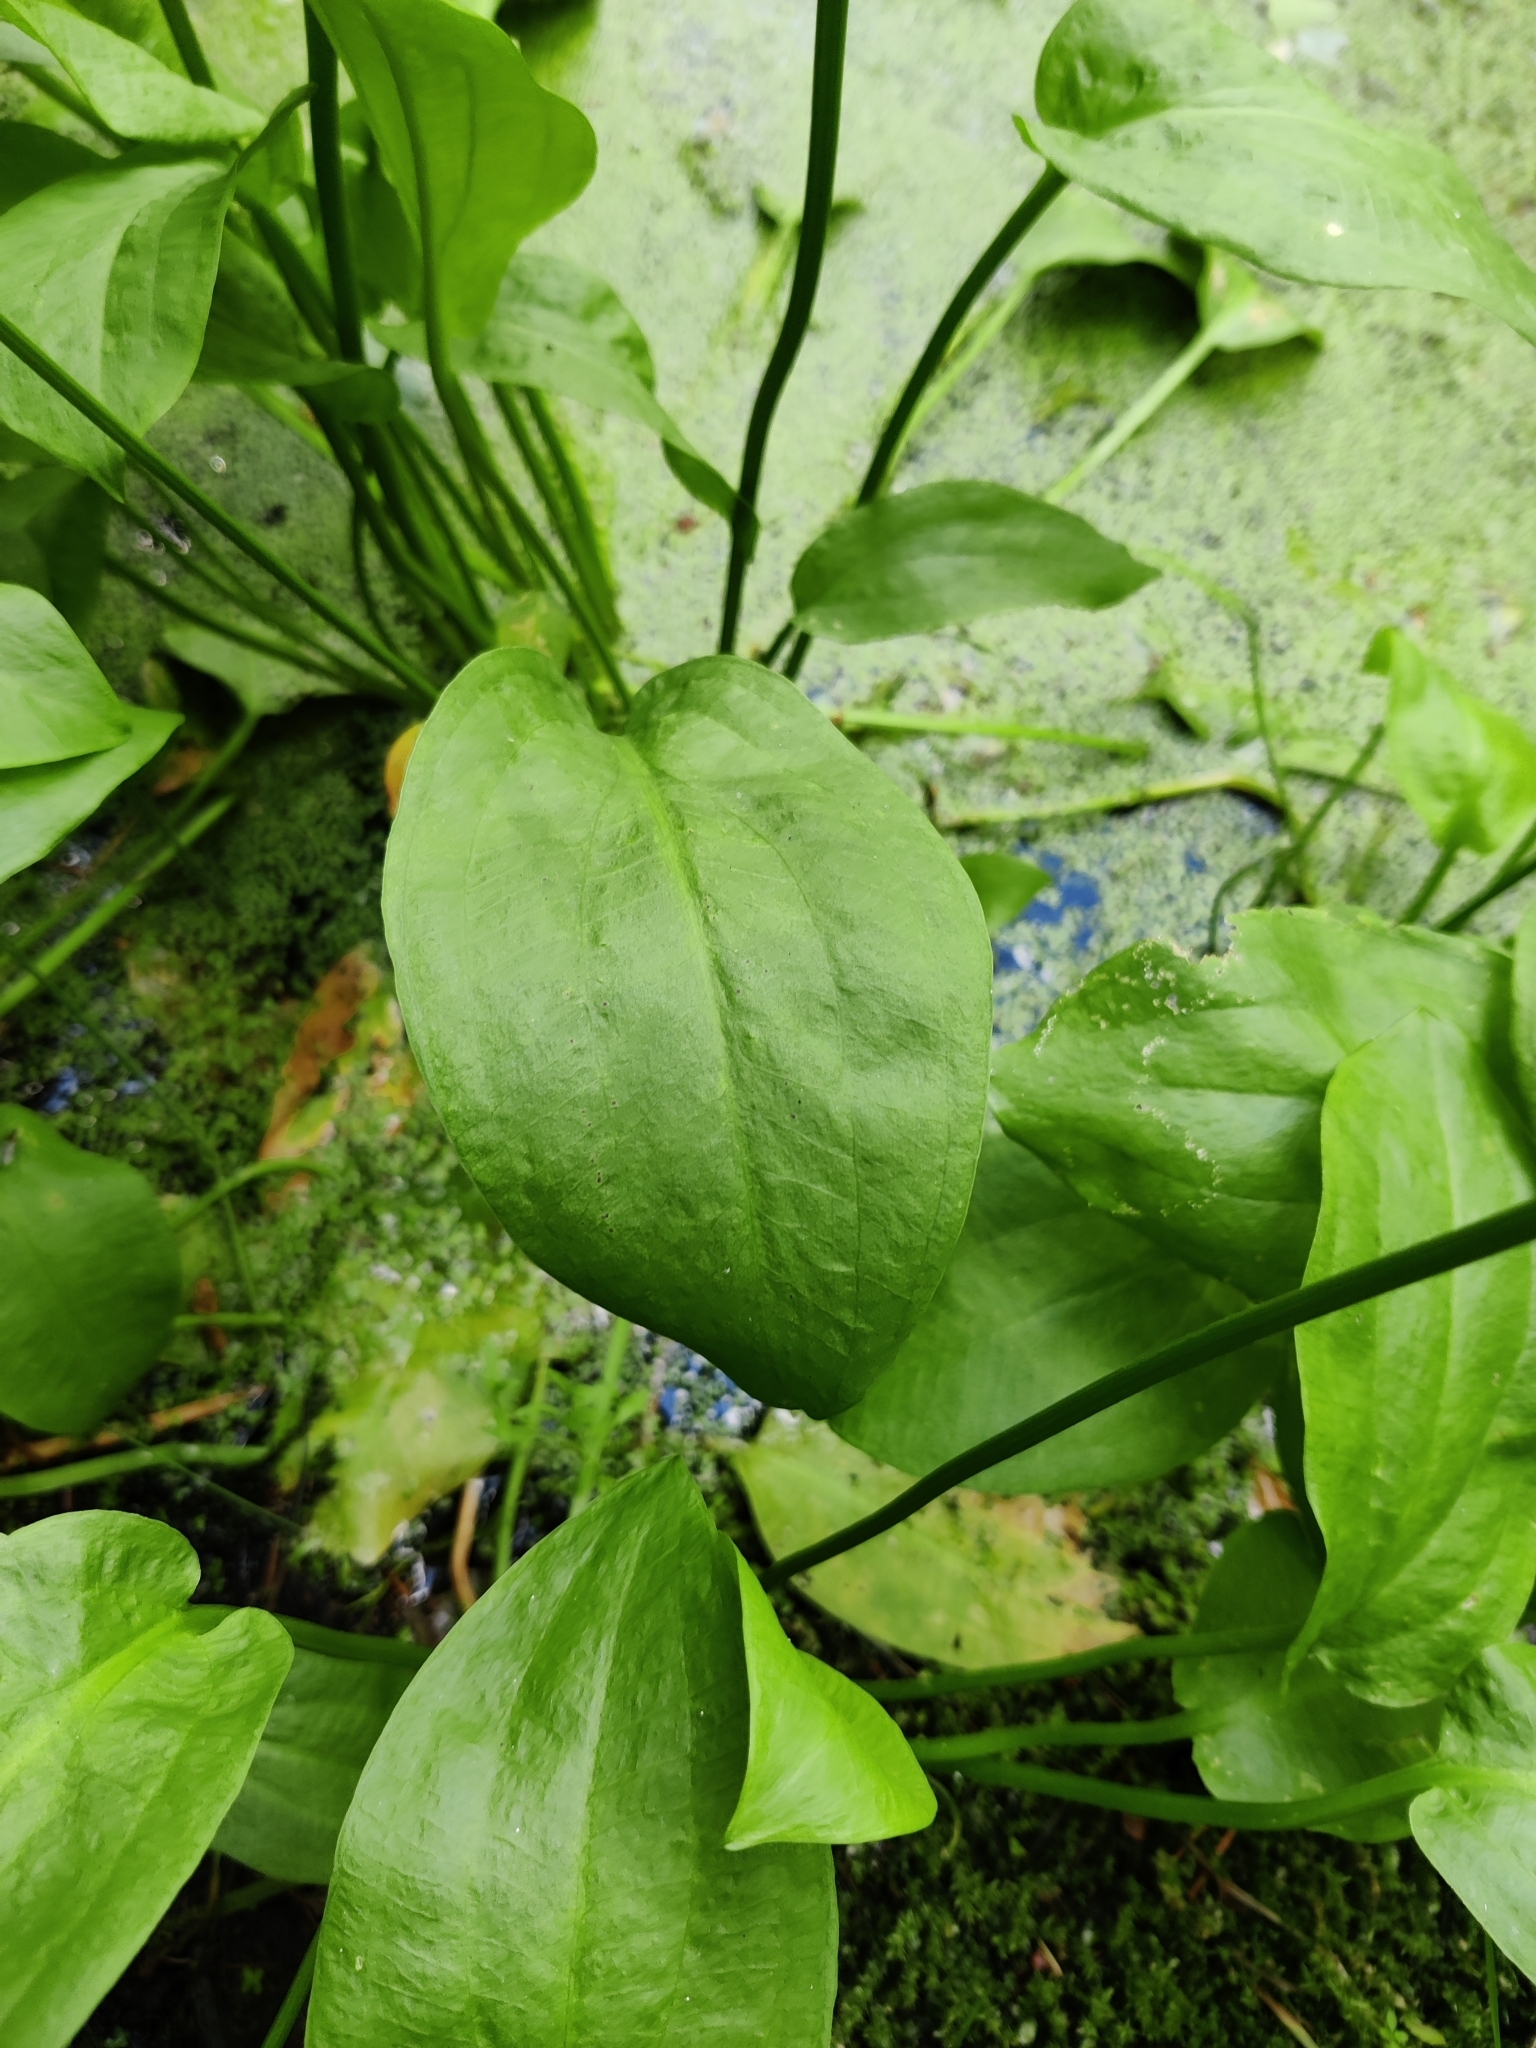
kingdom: Plantae
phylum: Tracheophyta
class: Liliopsida
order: Alismatales
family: Alismataceae
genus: Alisma
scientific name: Alisma plantago-aquatica
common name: Water-plantain
